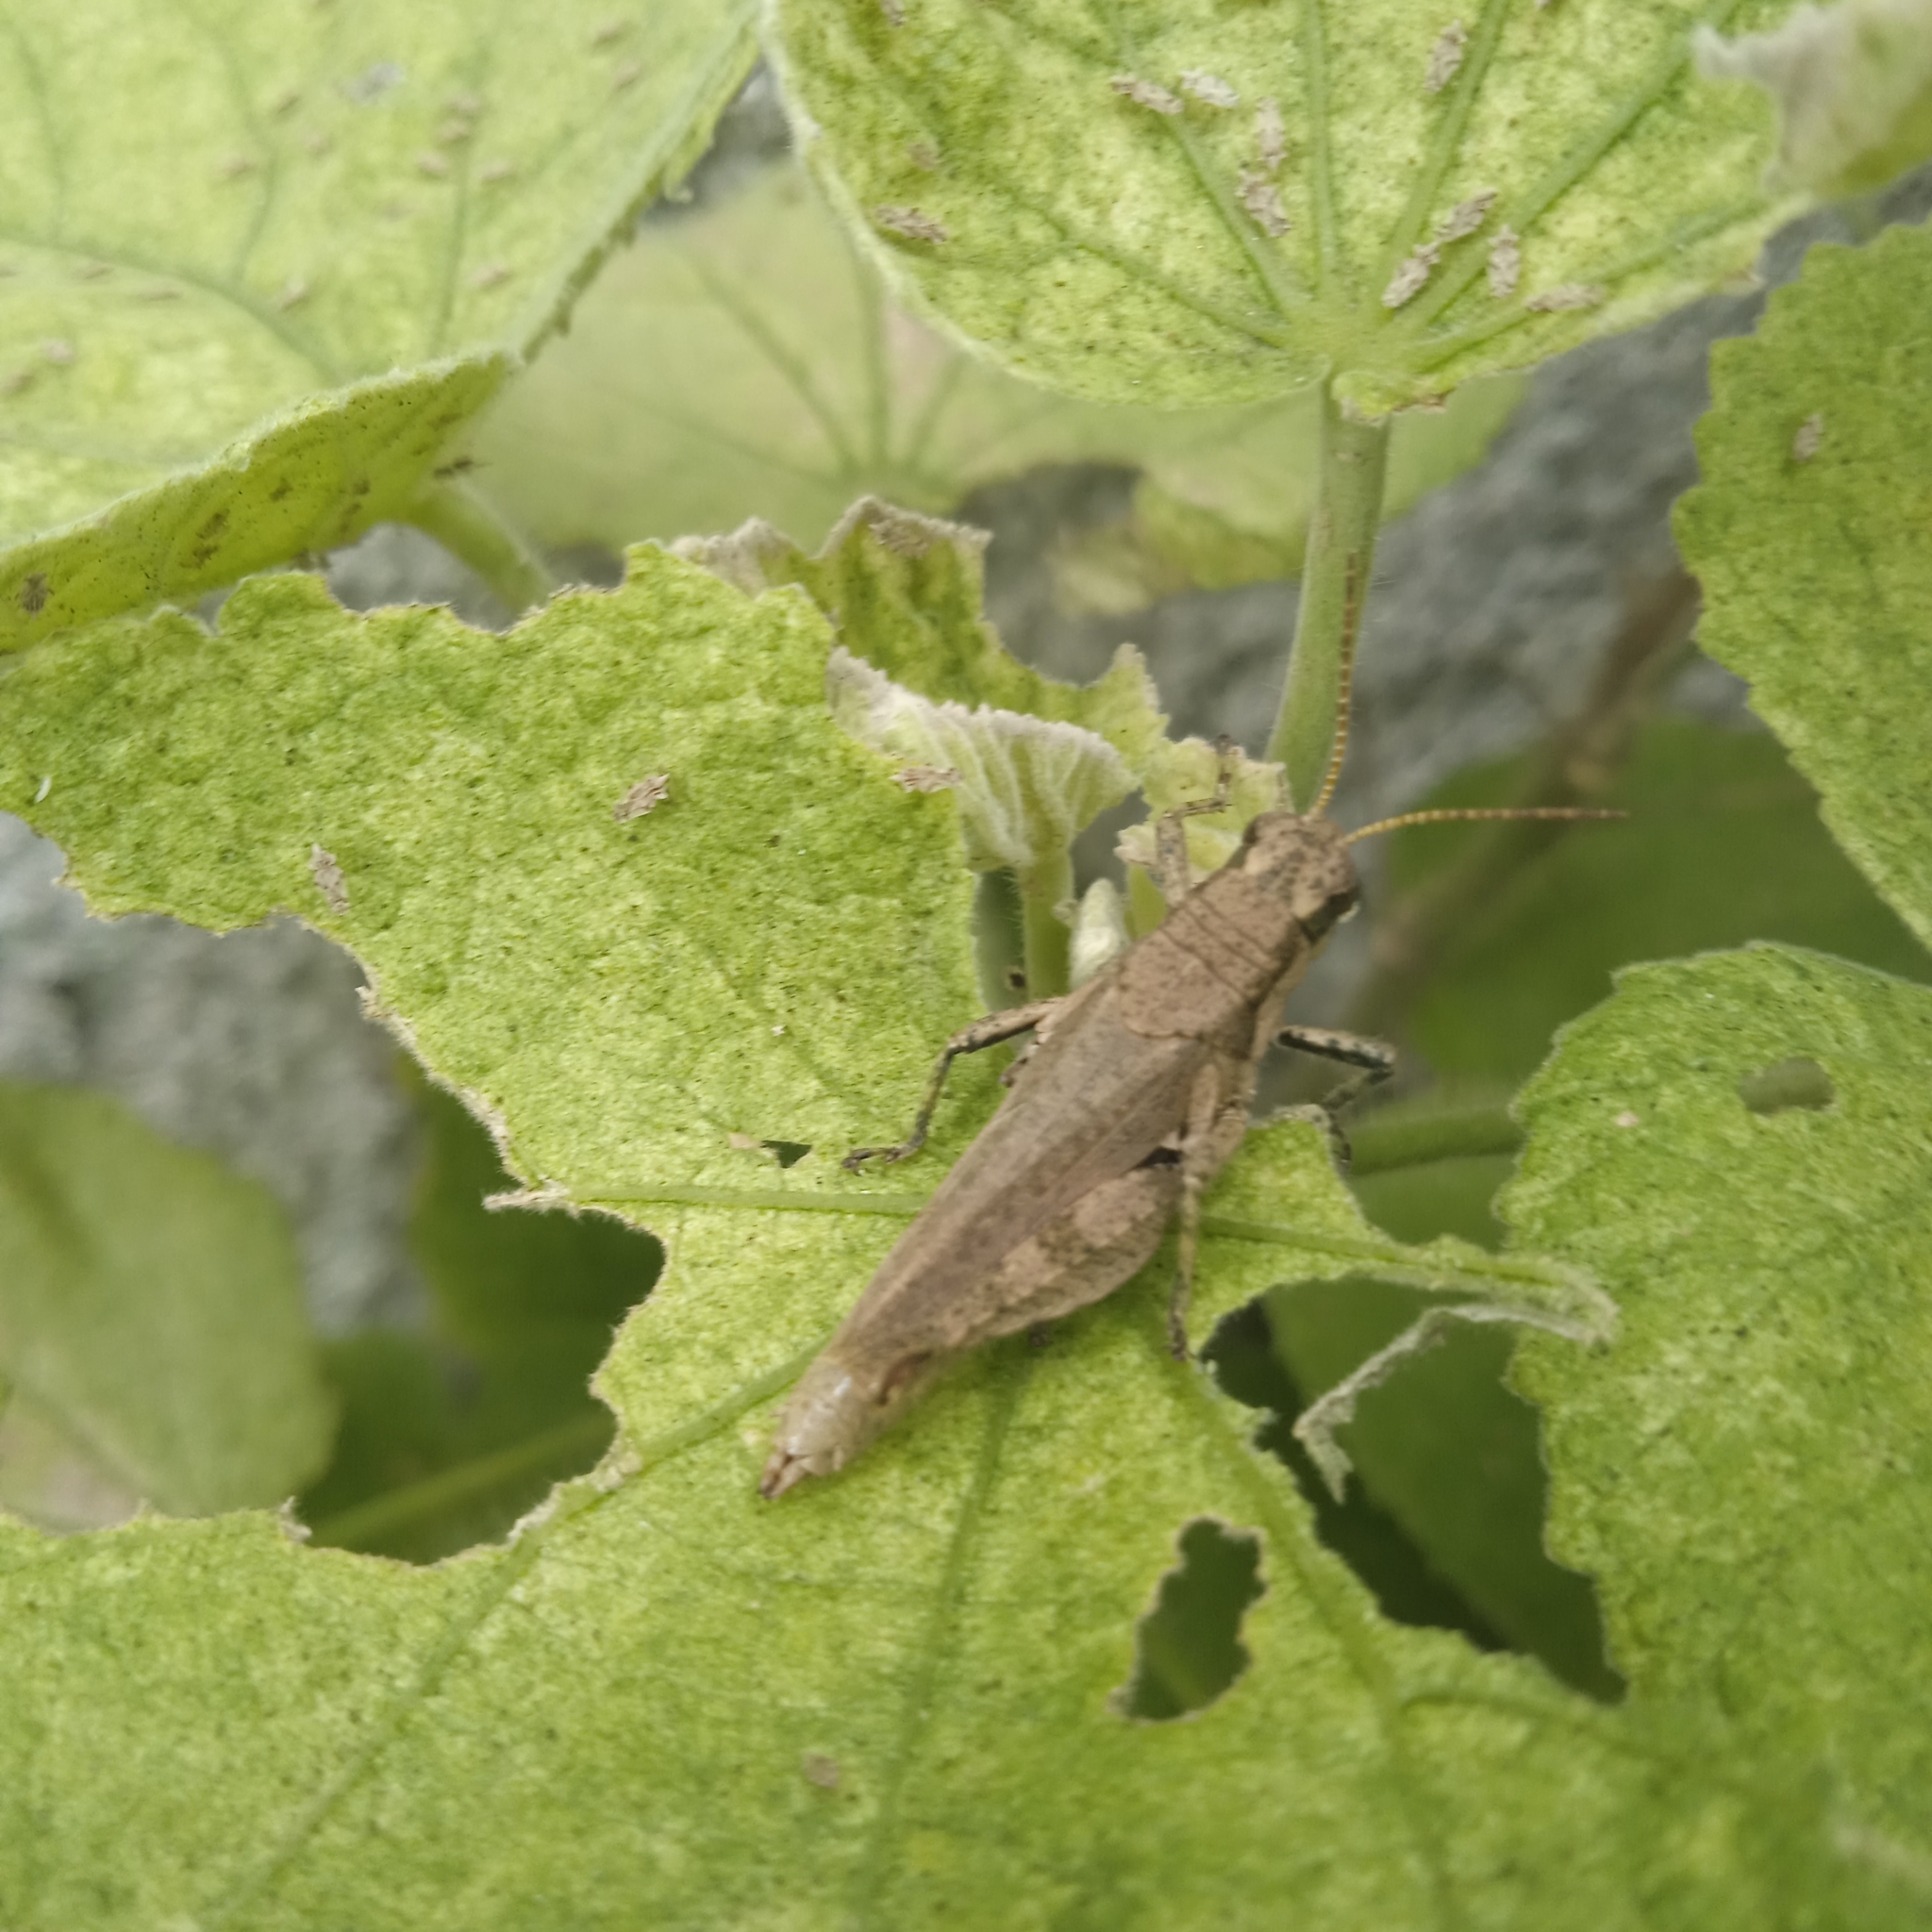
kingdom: Animalia
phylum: Arthropoda
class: Insecta
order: Orthoptera
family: Acrididae
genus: Ronderosia
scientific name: Ronderosia bergii
